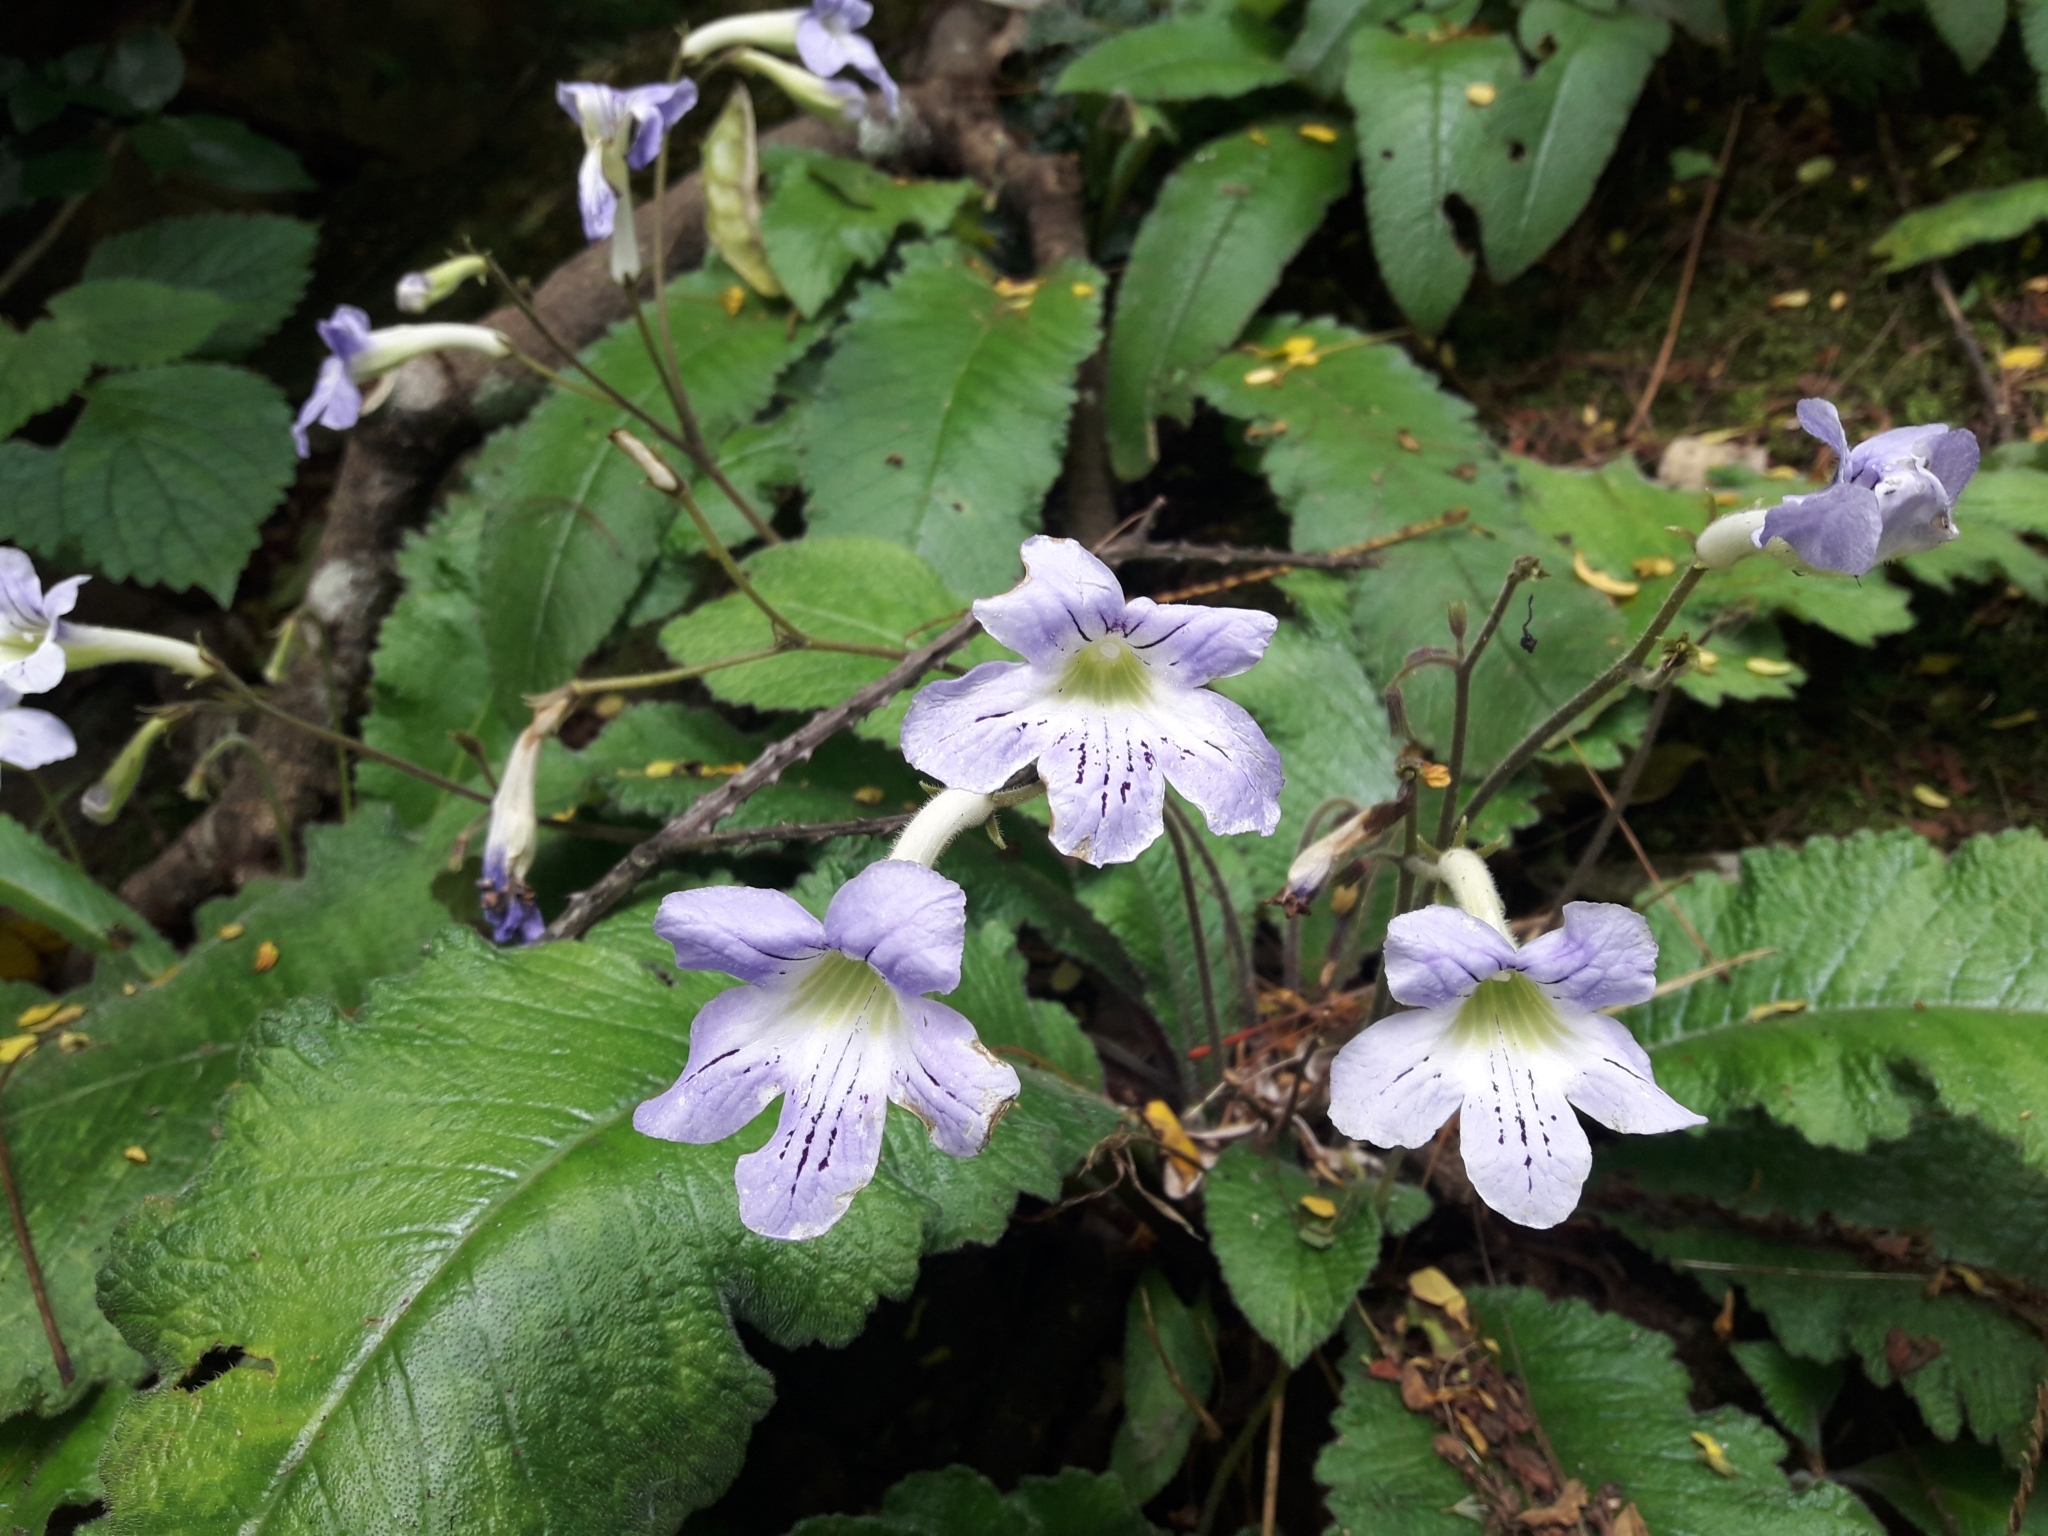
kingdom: Plantae
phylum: Tracheophyta
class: Magnoliopsida
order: Lamiales
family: Gesneriaceae
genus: Streptocarpus
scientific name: Streptocarpus gardenii
